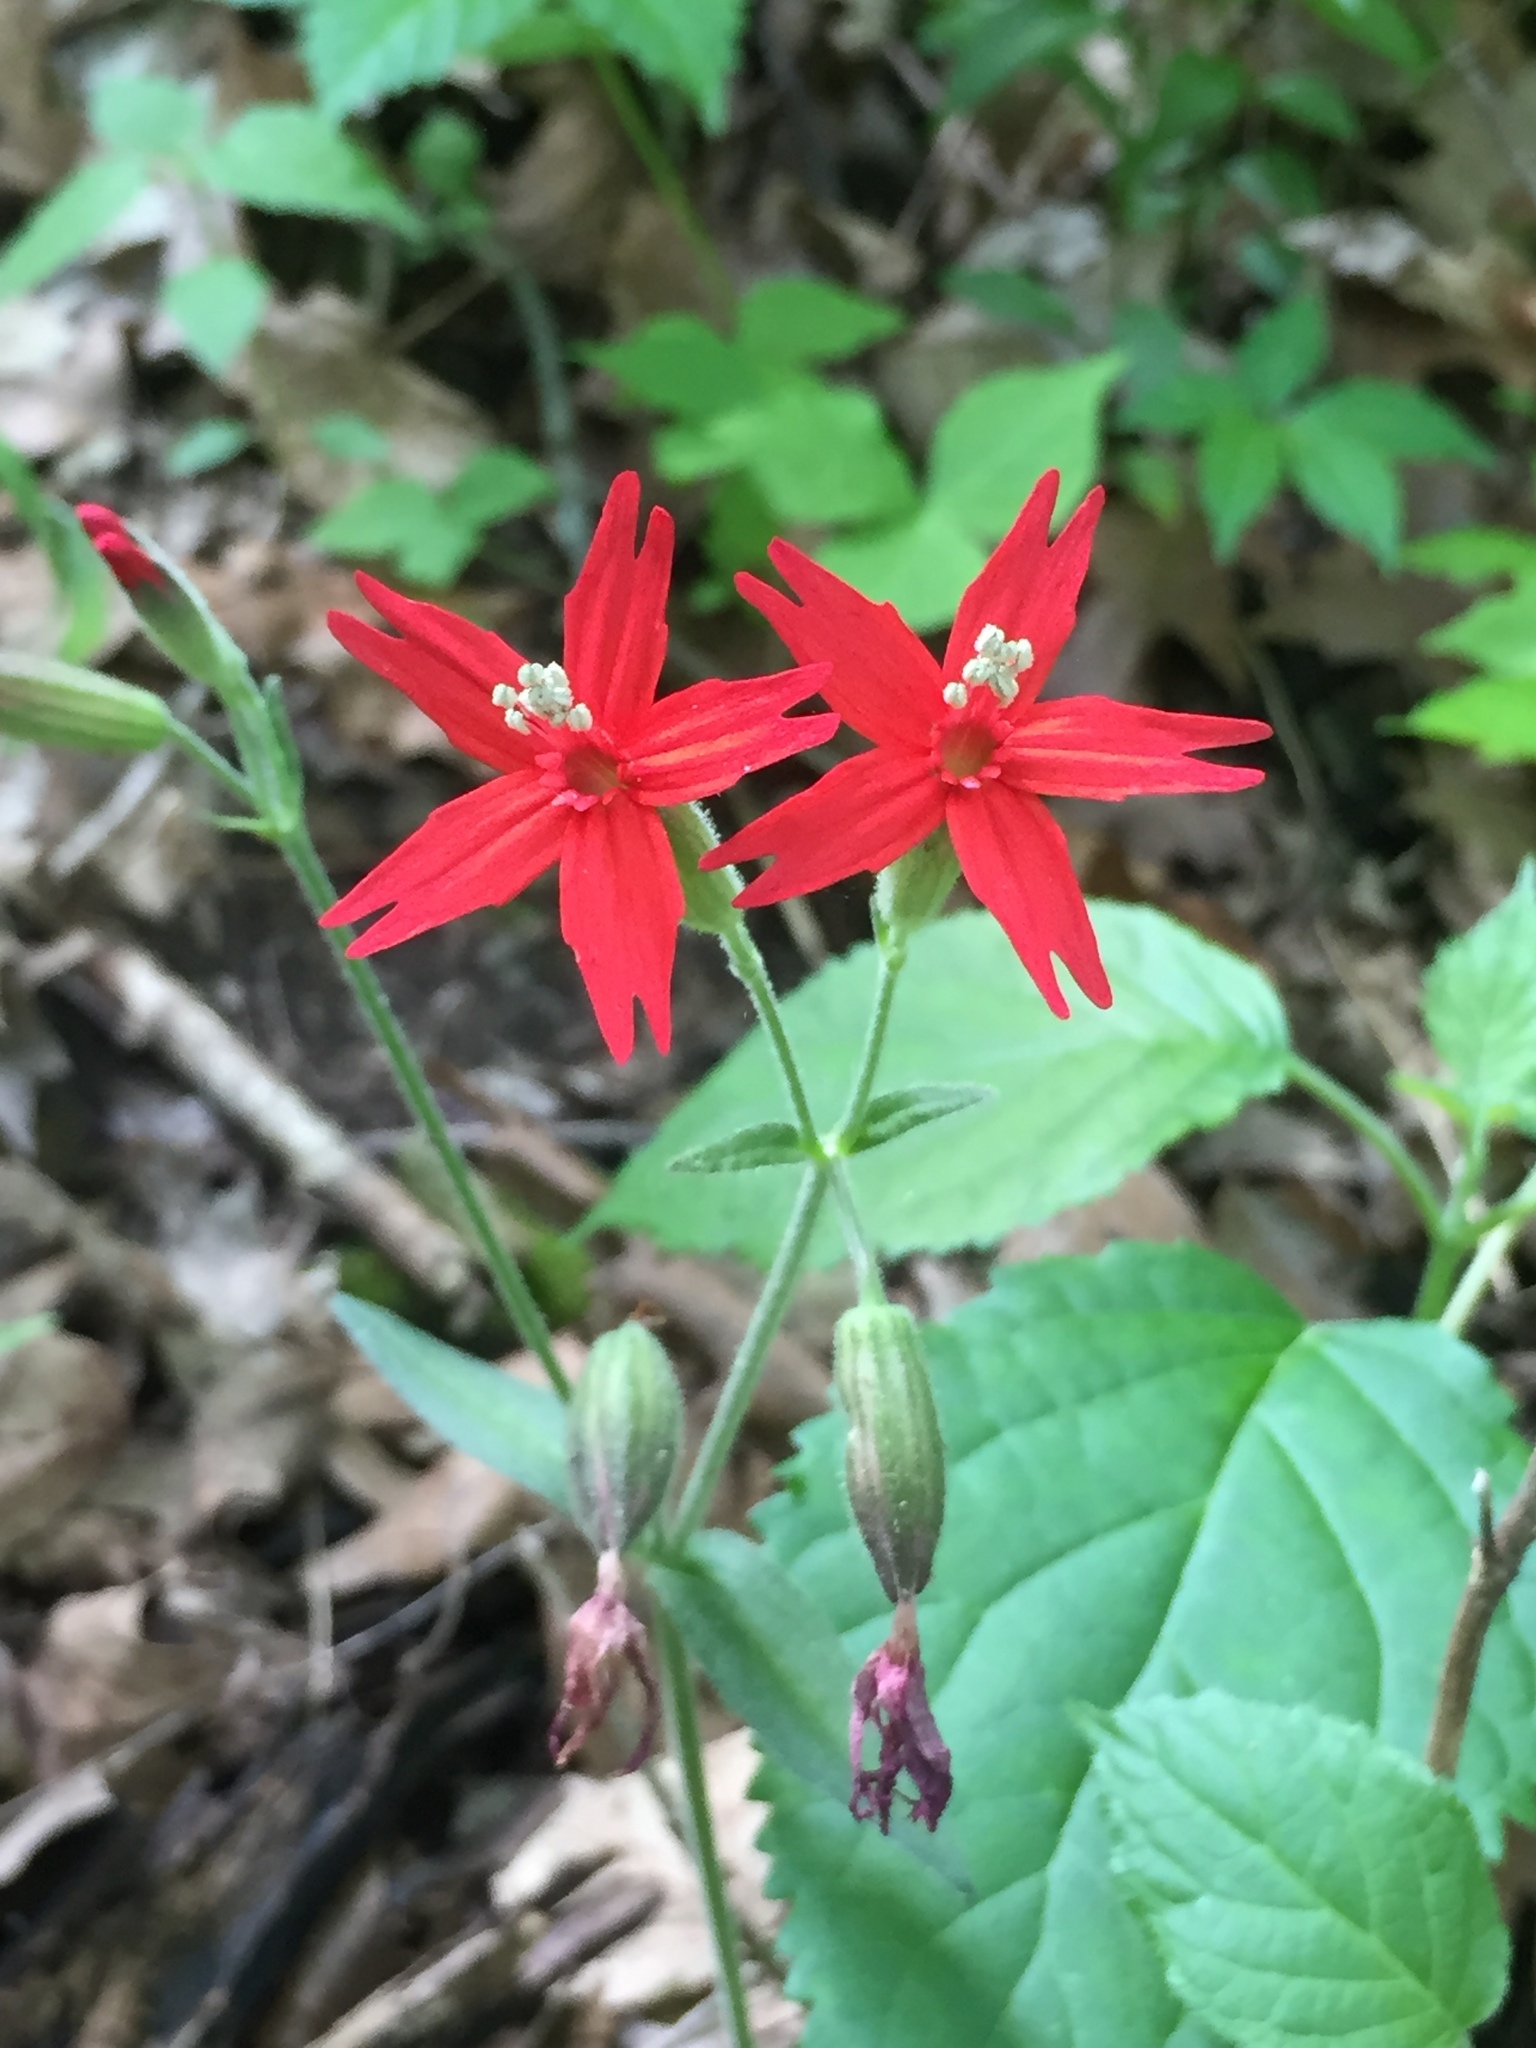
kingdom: Plantae
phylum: Tracheophyta
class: Magnoliopsida
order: Caryophyllales
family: Caryophyllaceae
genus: Silene
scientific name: Silene virginica
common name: Fire-pink
